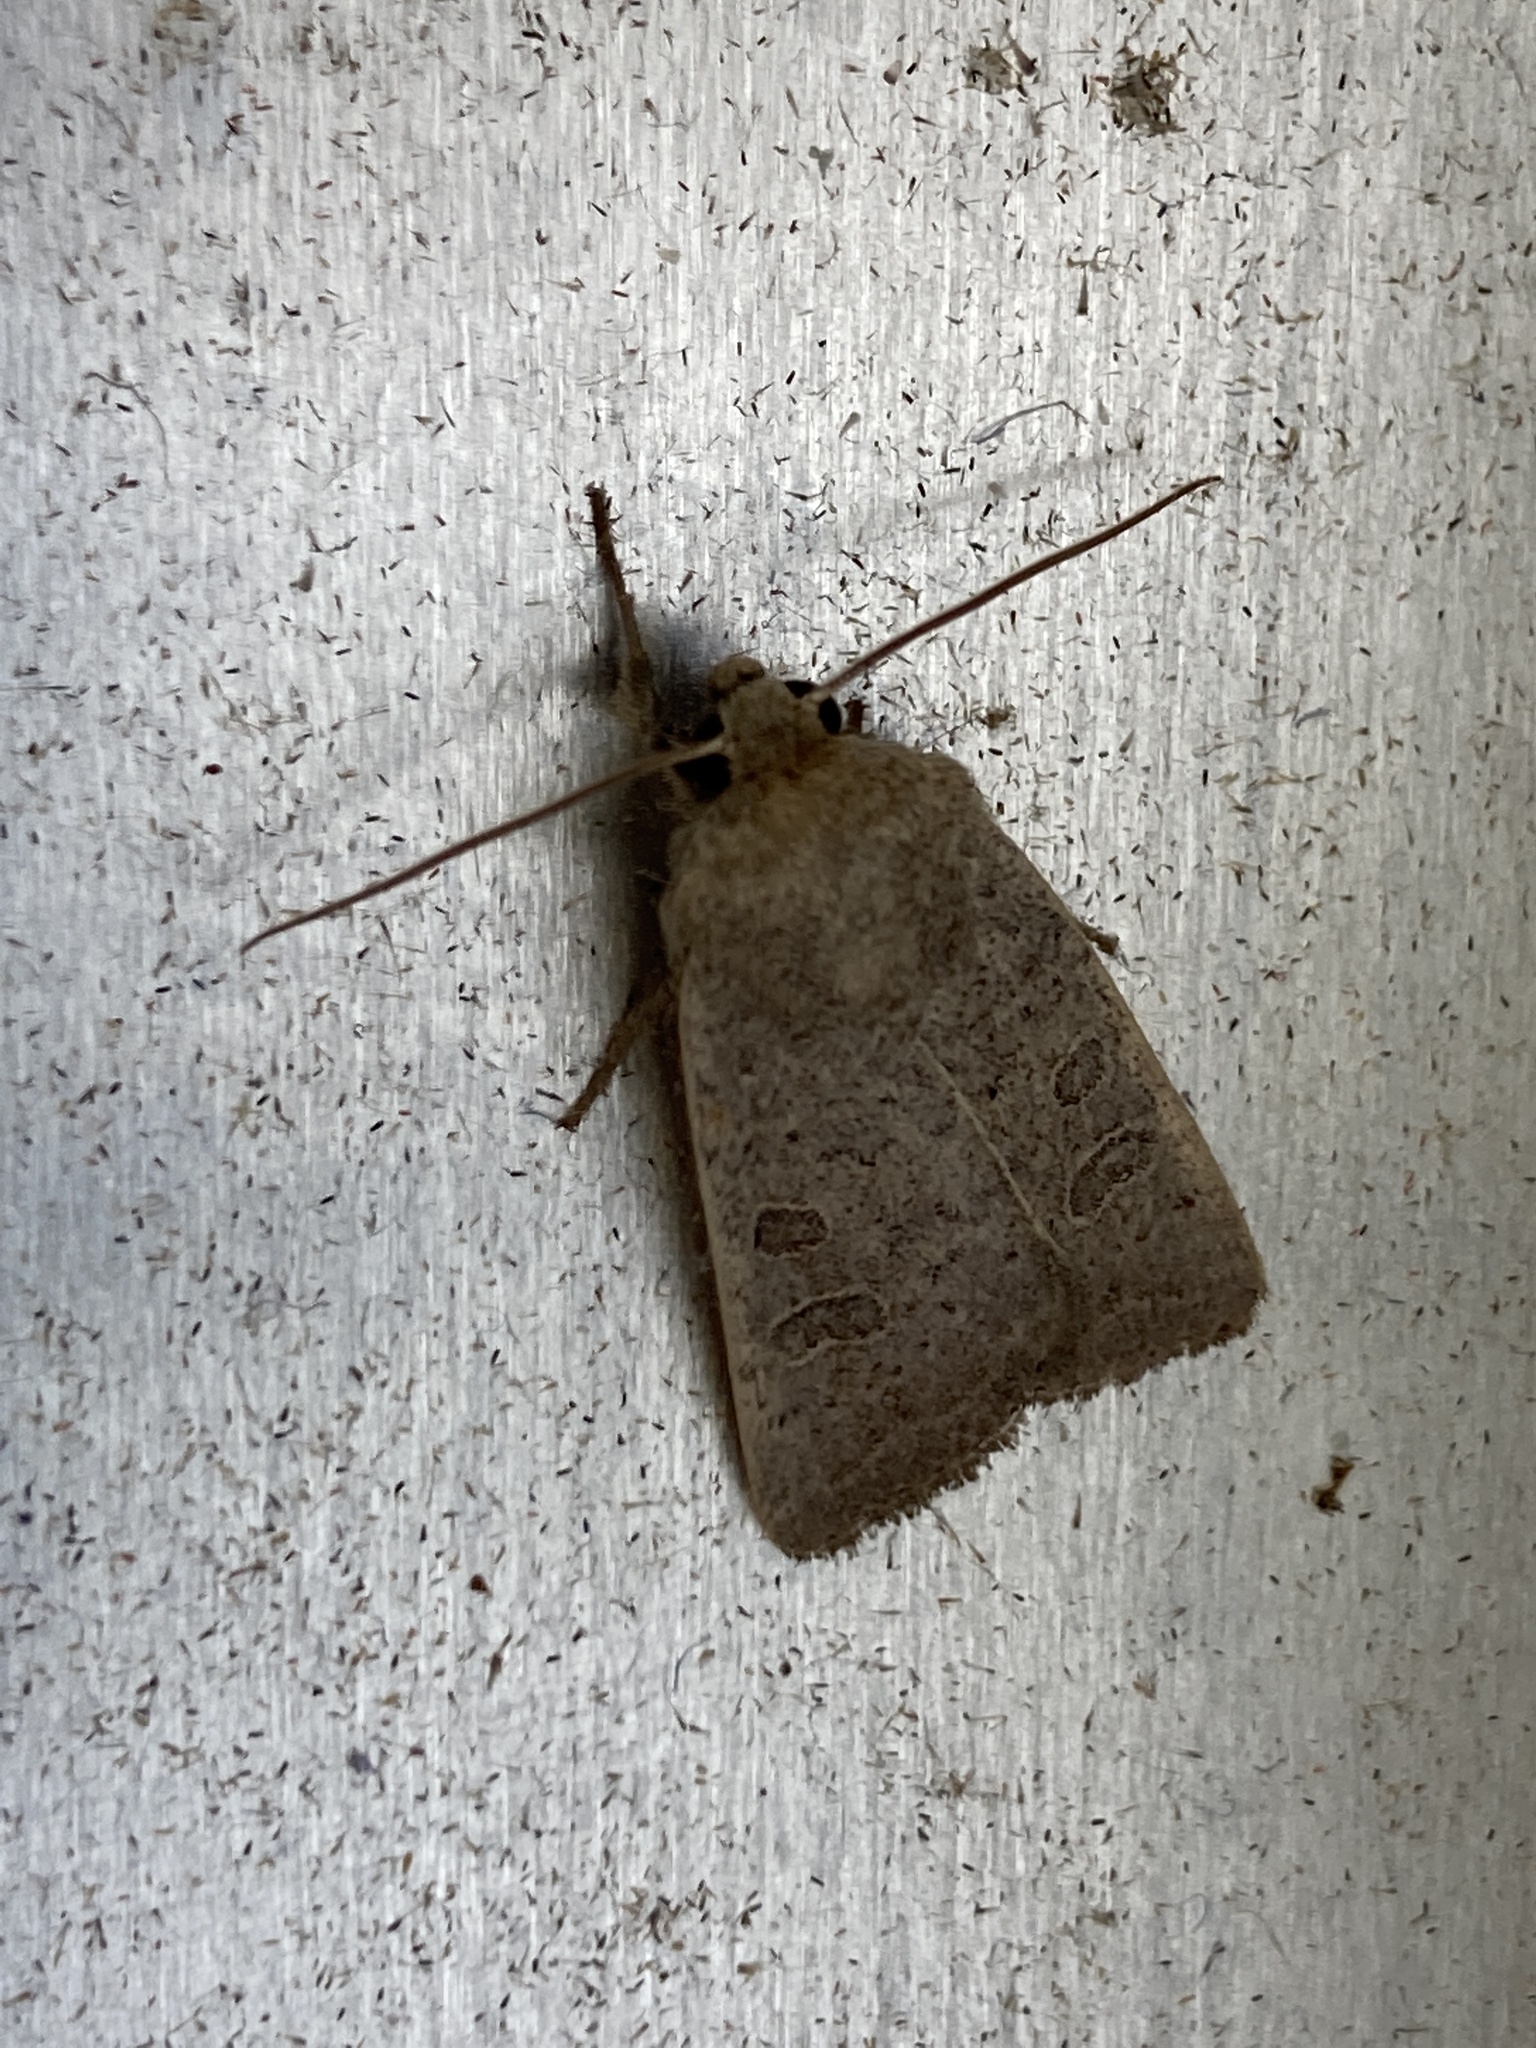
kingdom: Animalia
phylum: Arthropoda
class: Insecta
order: Lepidoptera
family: Noctuidae
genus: Hoplodrina
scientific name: Hoplodrina ambigua
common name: Vine's rustic
